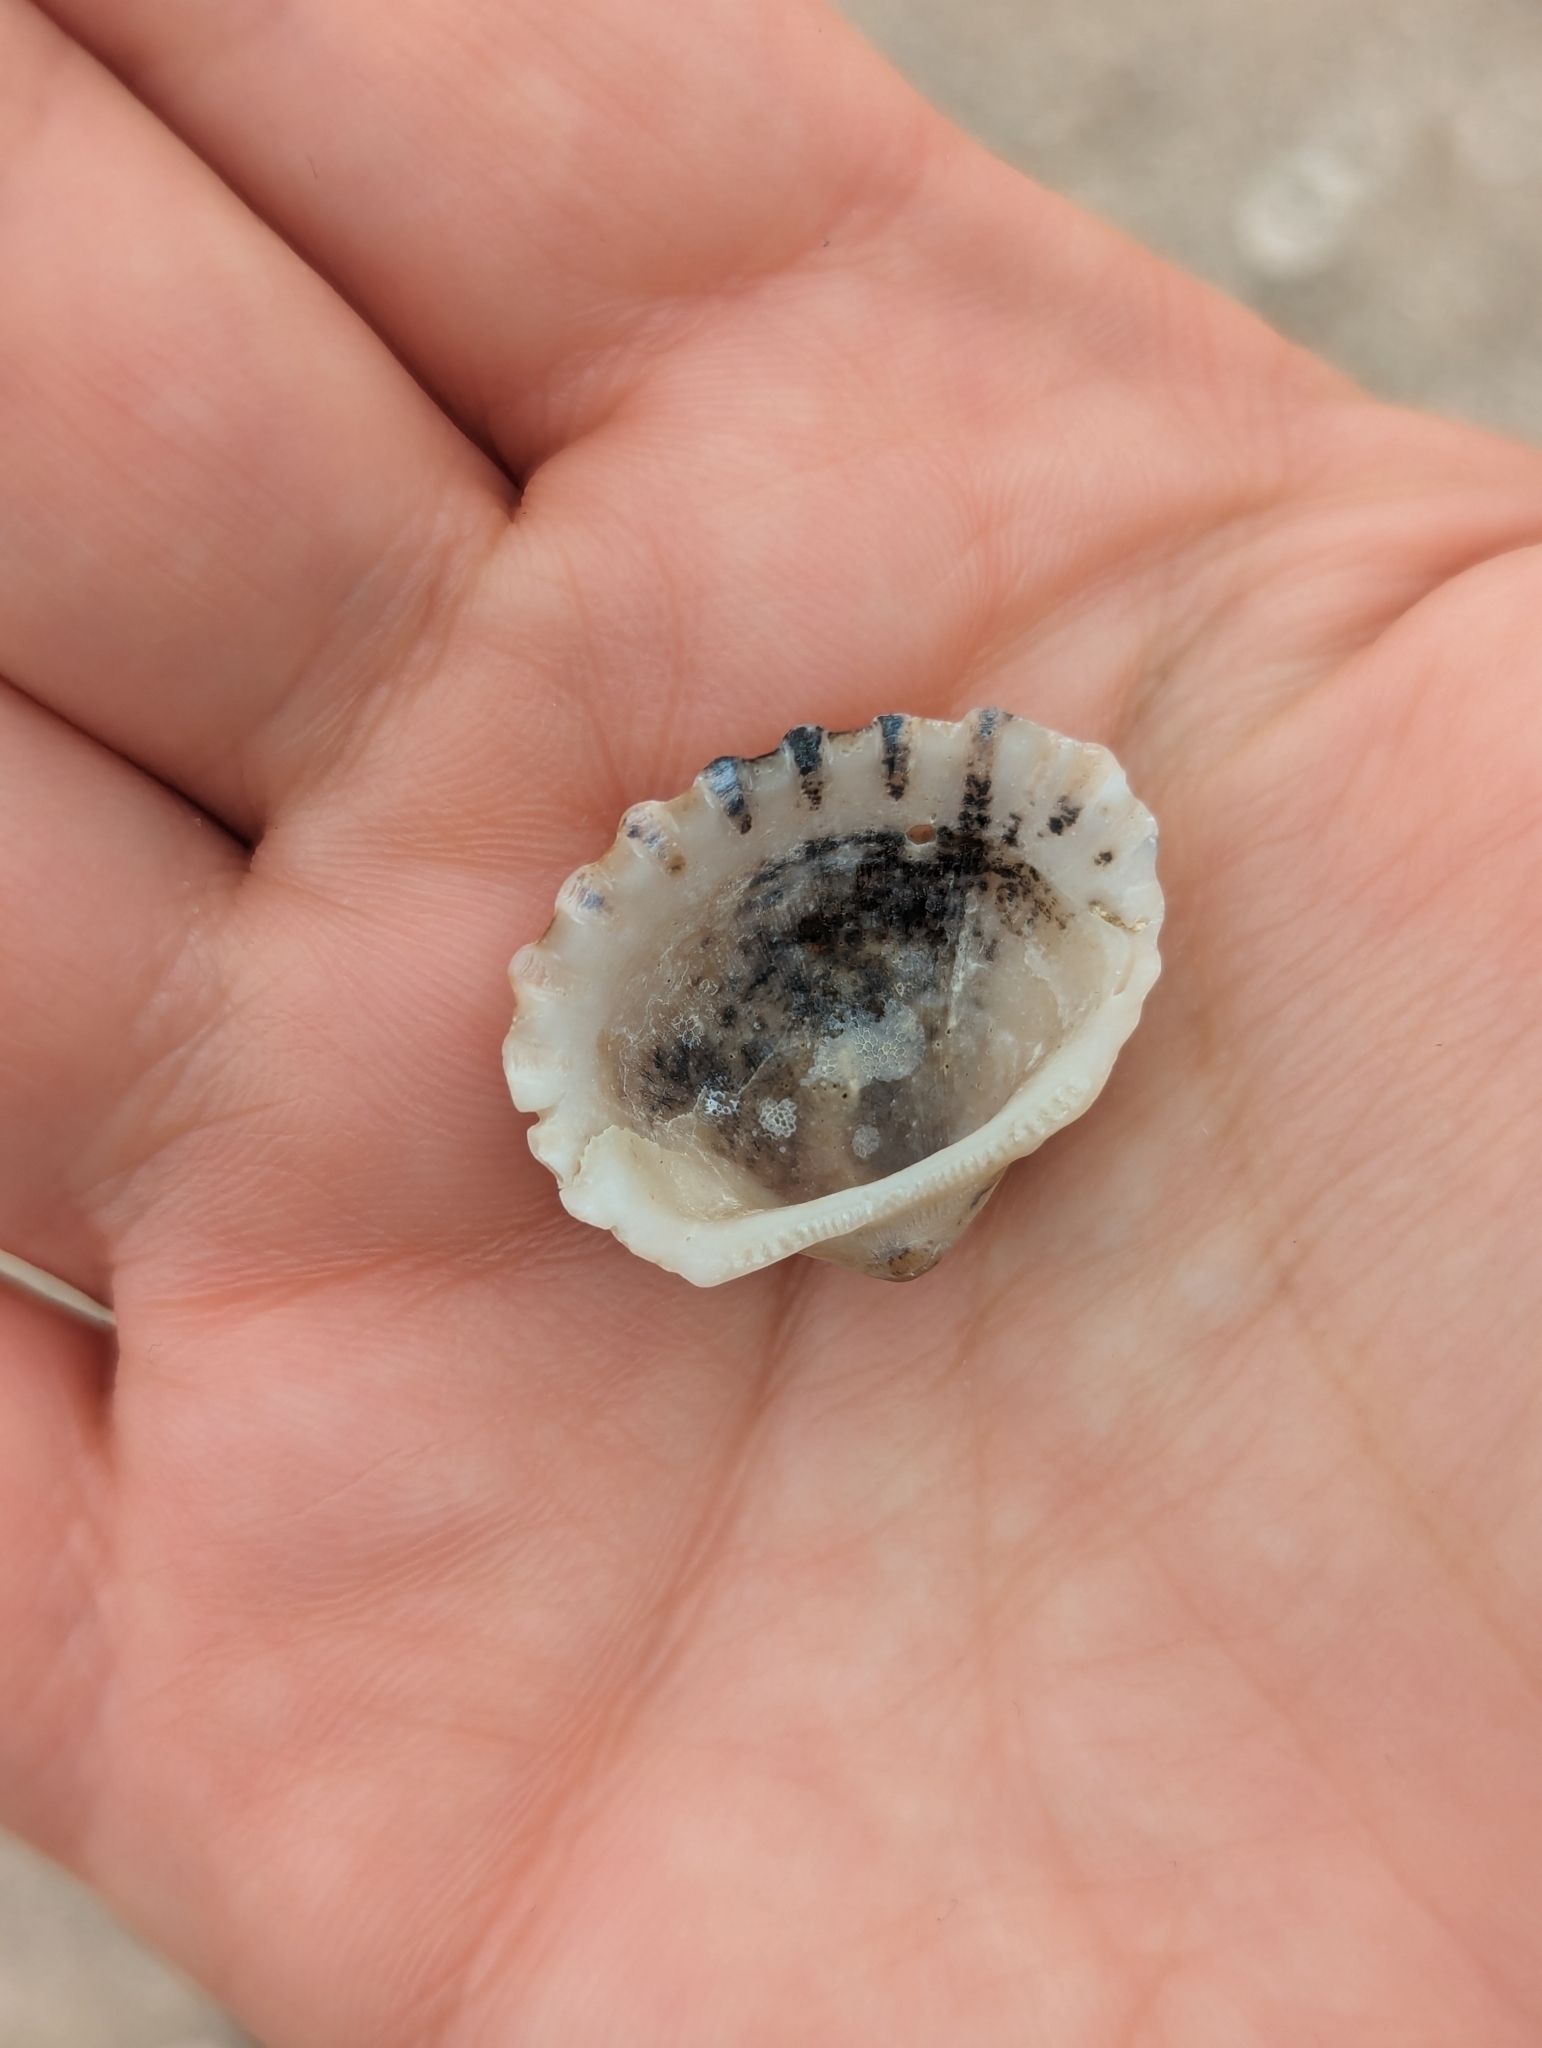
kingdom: Animalia
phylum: Mollusca
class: Bivalvia
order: Arcida
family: Arcidae
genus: Tegillarca
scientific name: Tegillarca granosa
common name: Blood clam
